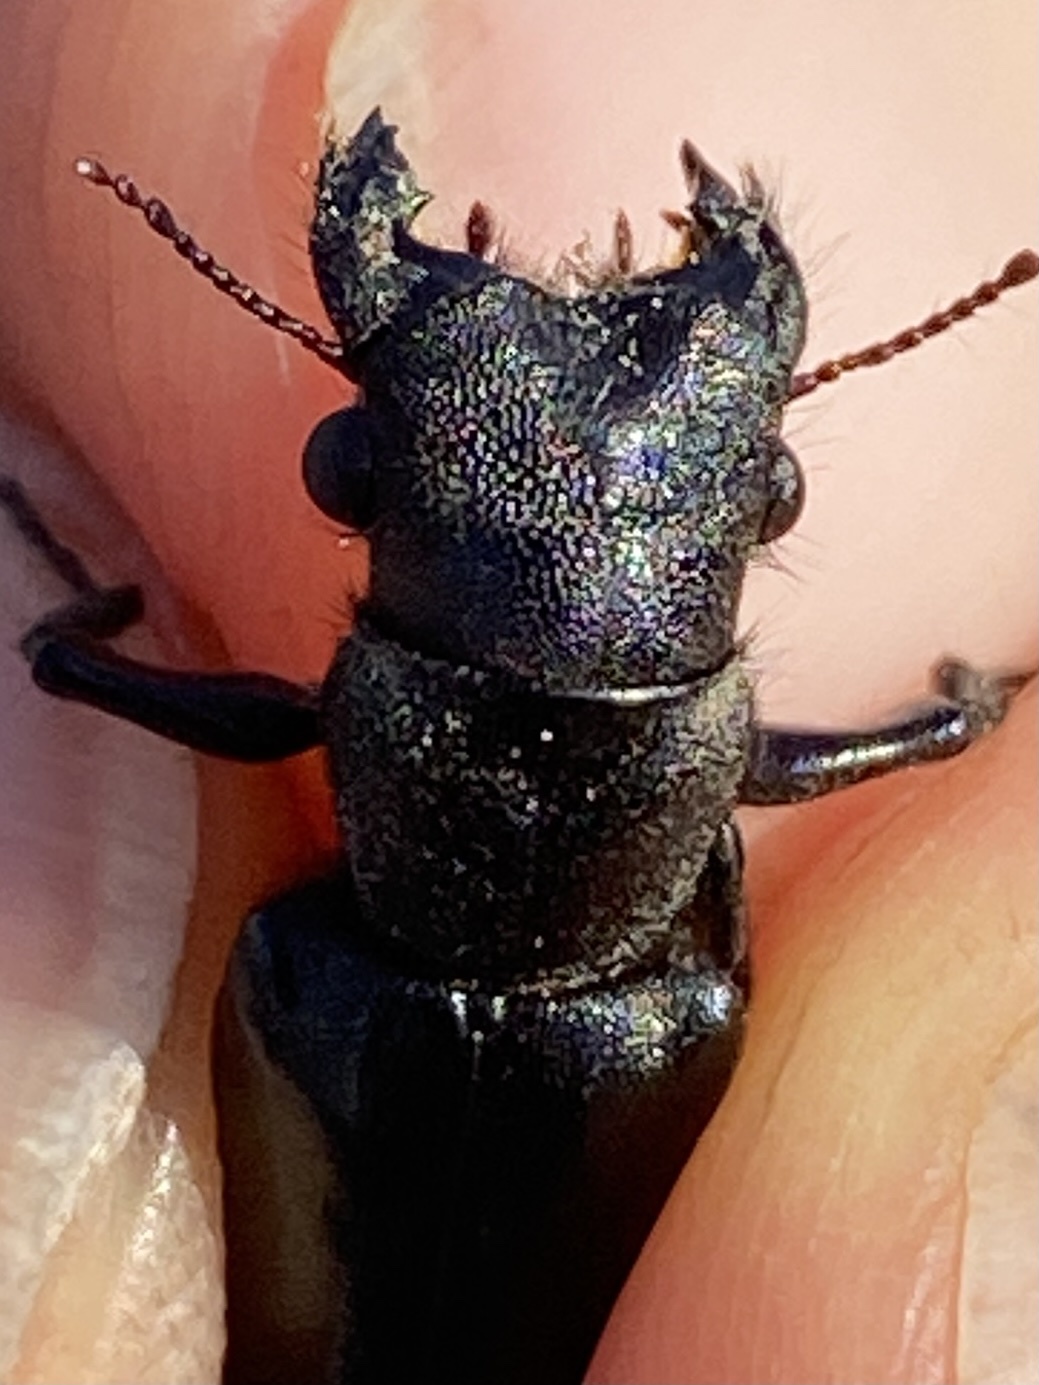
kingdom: Animalia
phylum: Arthropoda
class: Insecta
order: Coleoptera
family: Bostrichidae
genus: Polycaon
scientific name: Polycaon stoutii
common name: Powderpost beetle
